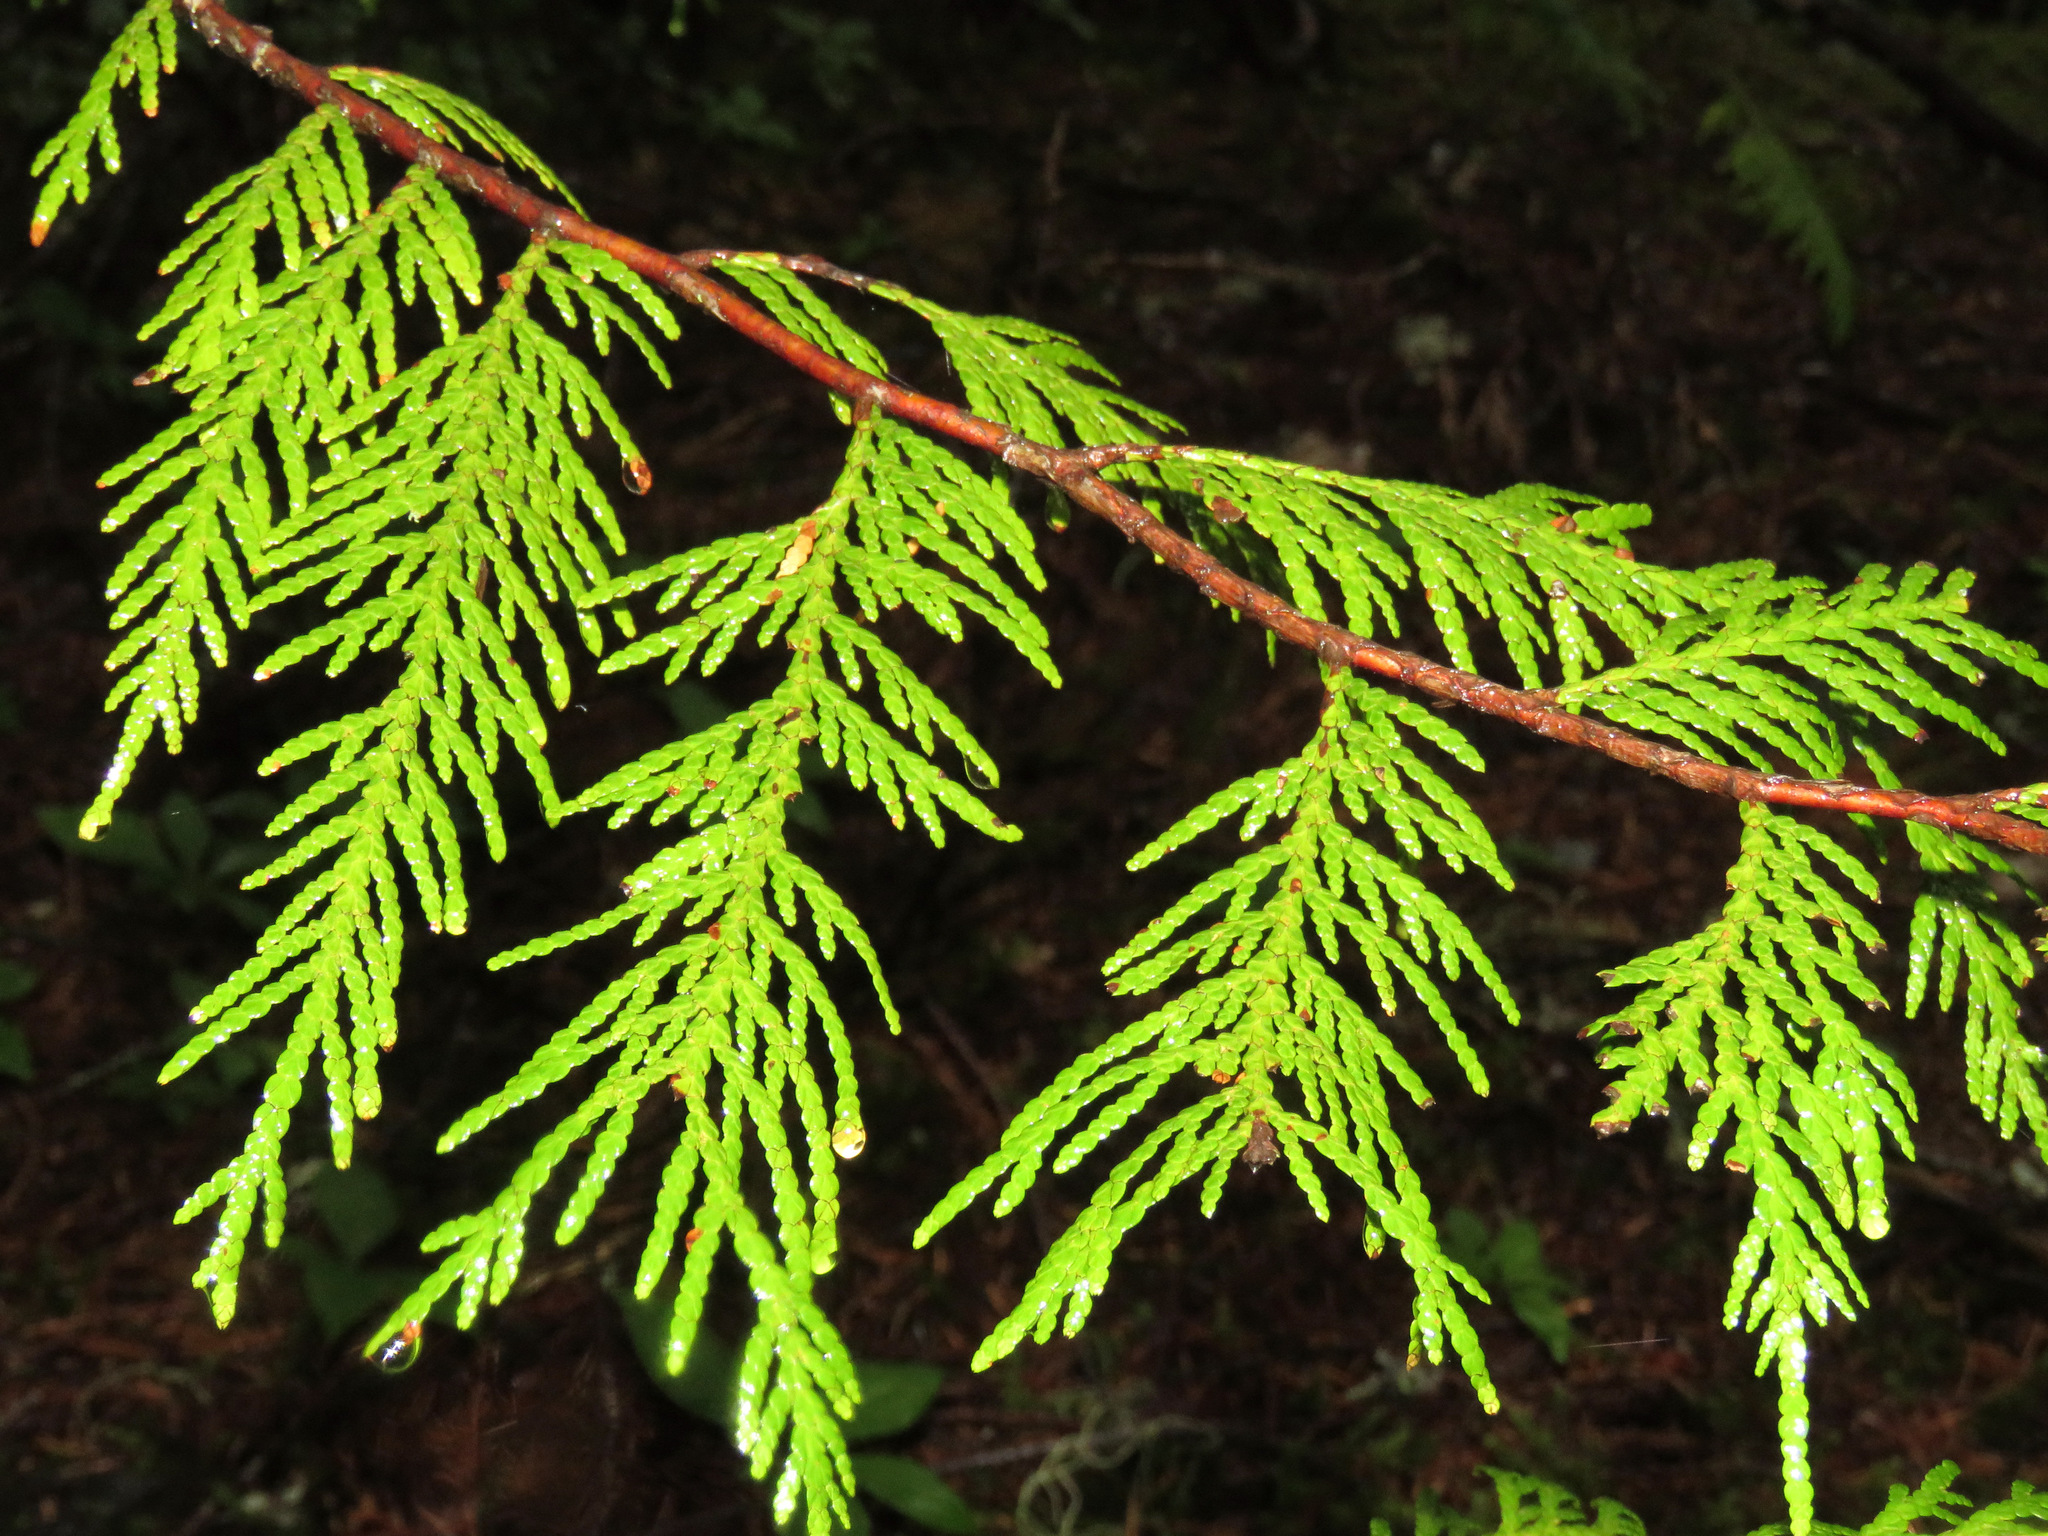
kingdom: Plantae
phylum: Tracheophyta
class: Pinopsida
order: Pinales
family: Cupressaceae
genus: Thuja
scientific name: Thuja plicata
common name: Western red-cedar
